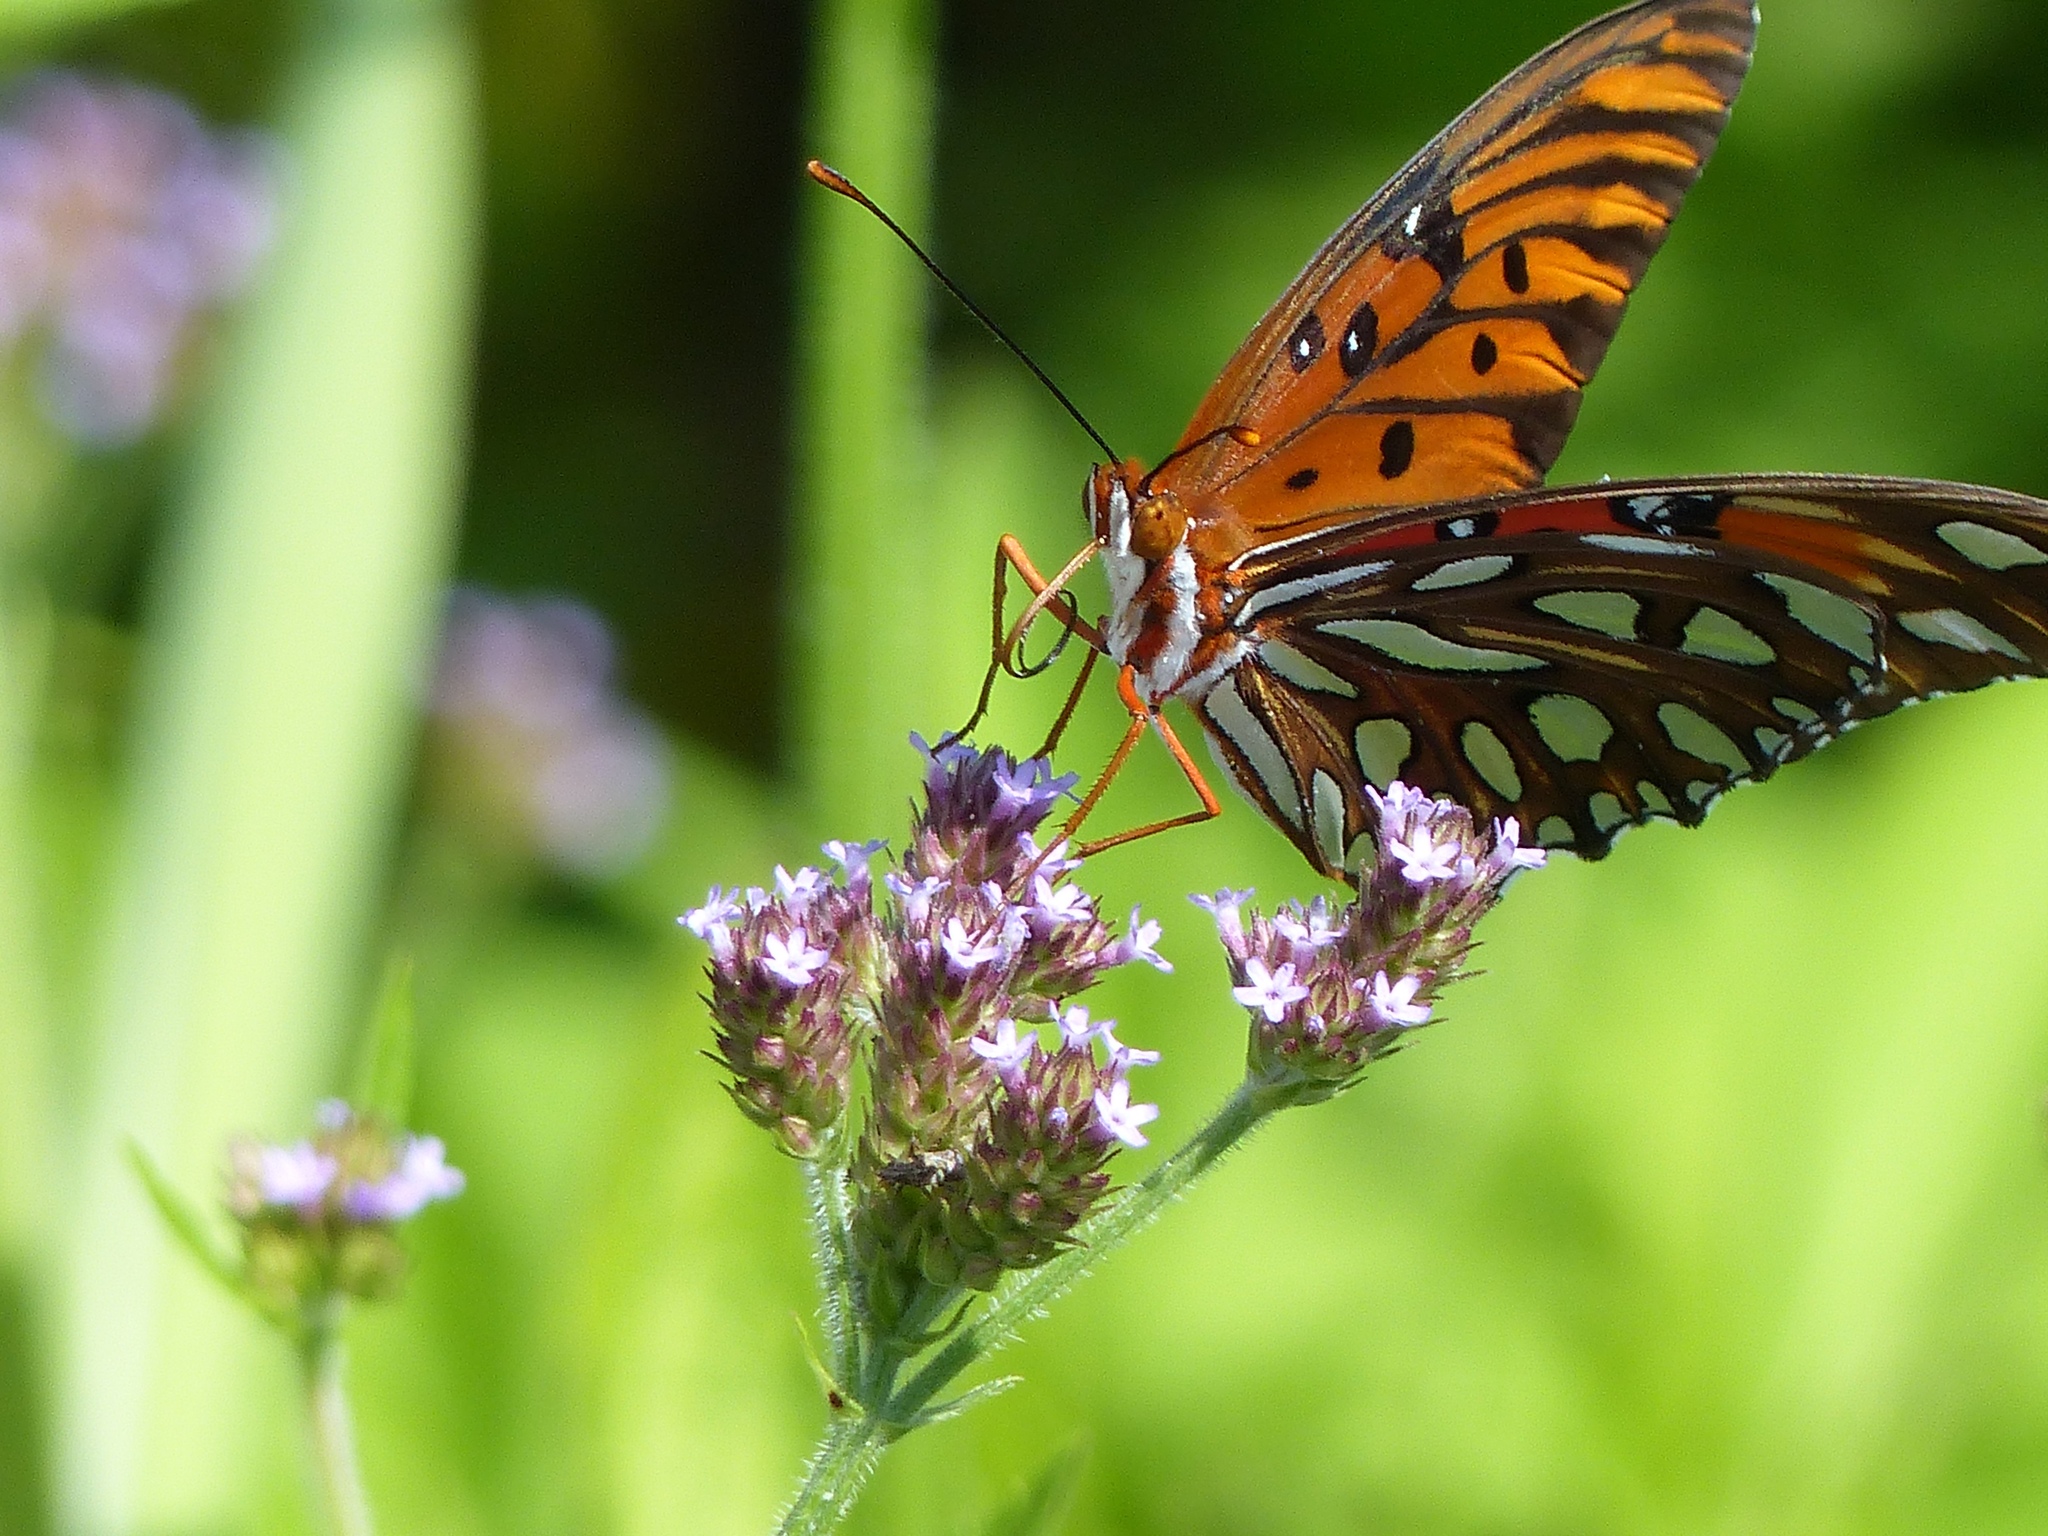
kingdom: Animalia
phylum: Arthropoda
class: Insecta
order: Lepidoptera
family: Nymphalidae
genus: Dione
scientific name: Dione vanillae
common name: Gulf fritillary
